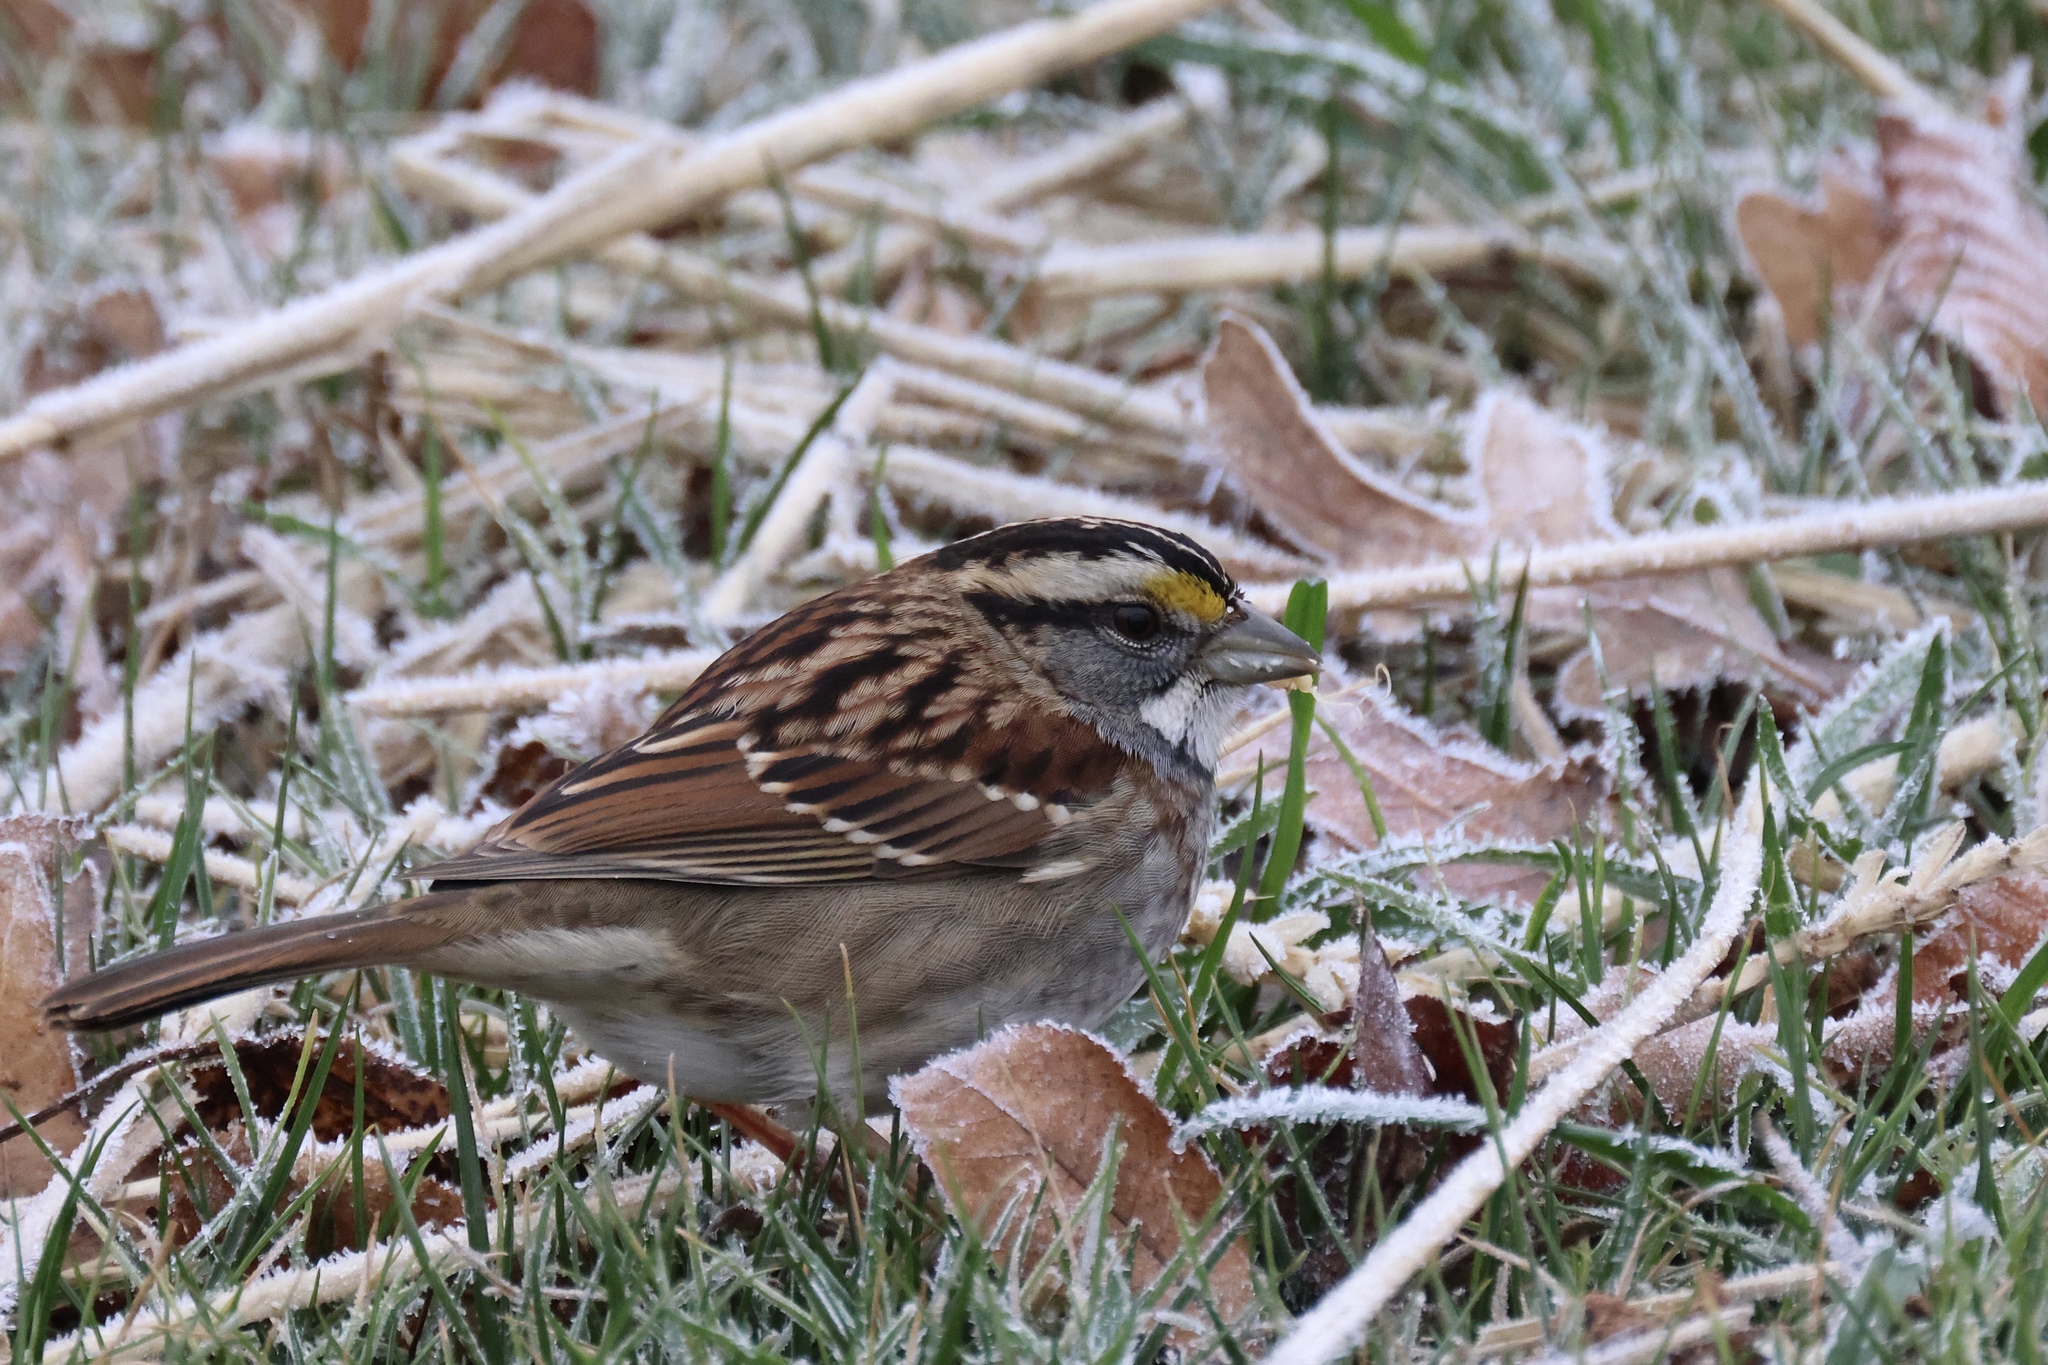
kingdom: Animalia
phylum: Chordata
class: Aves
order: Passeriformes
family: Passerellidae
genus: Zonotrichia
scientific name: Zonotrichia albicollis
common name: White-throated sparrow
